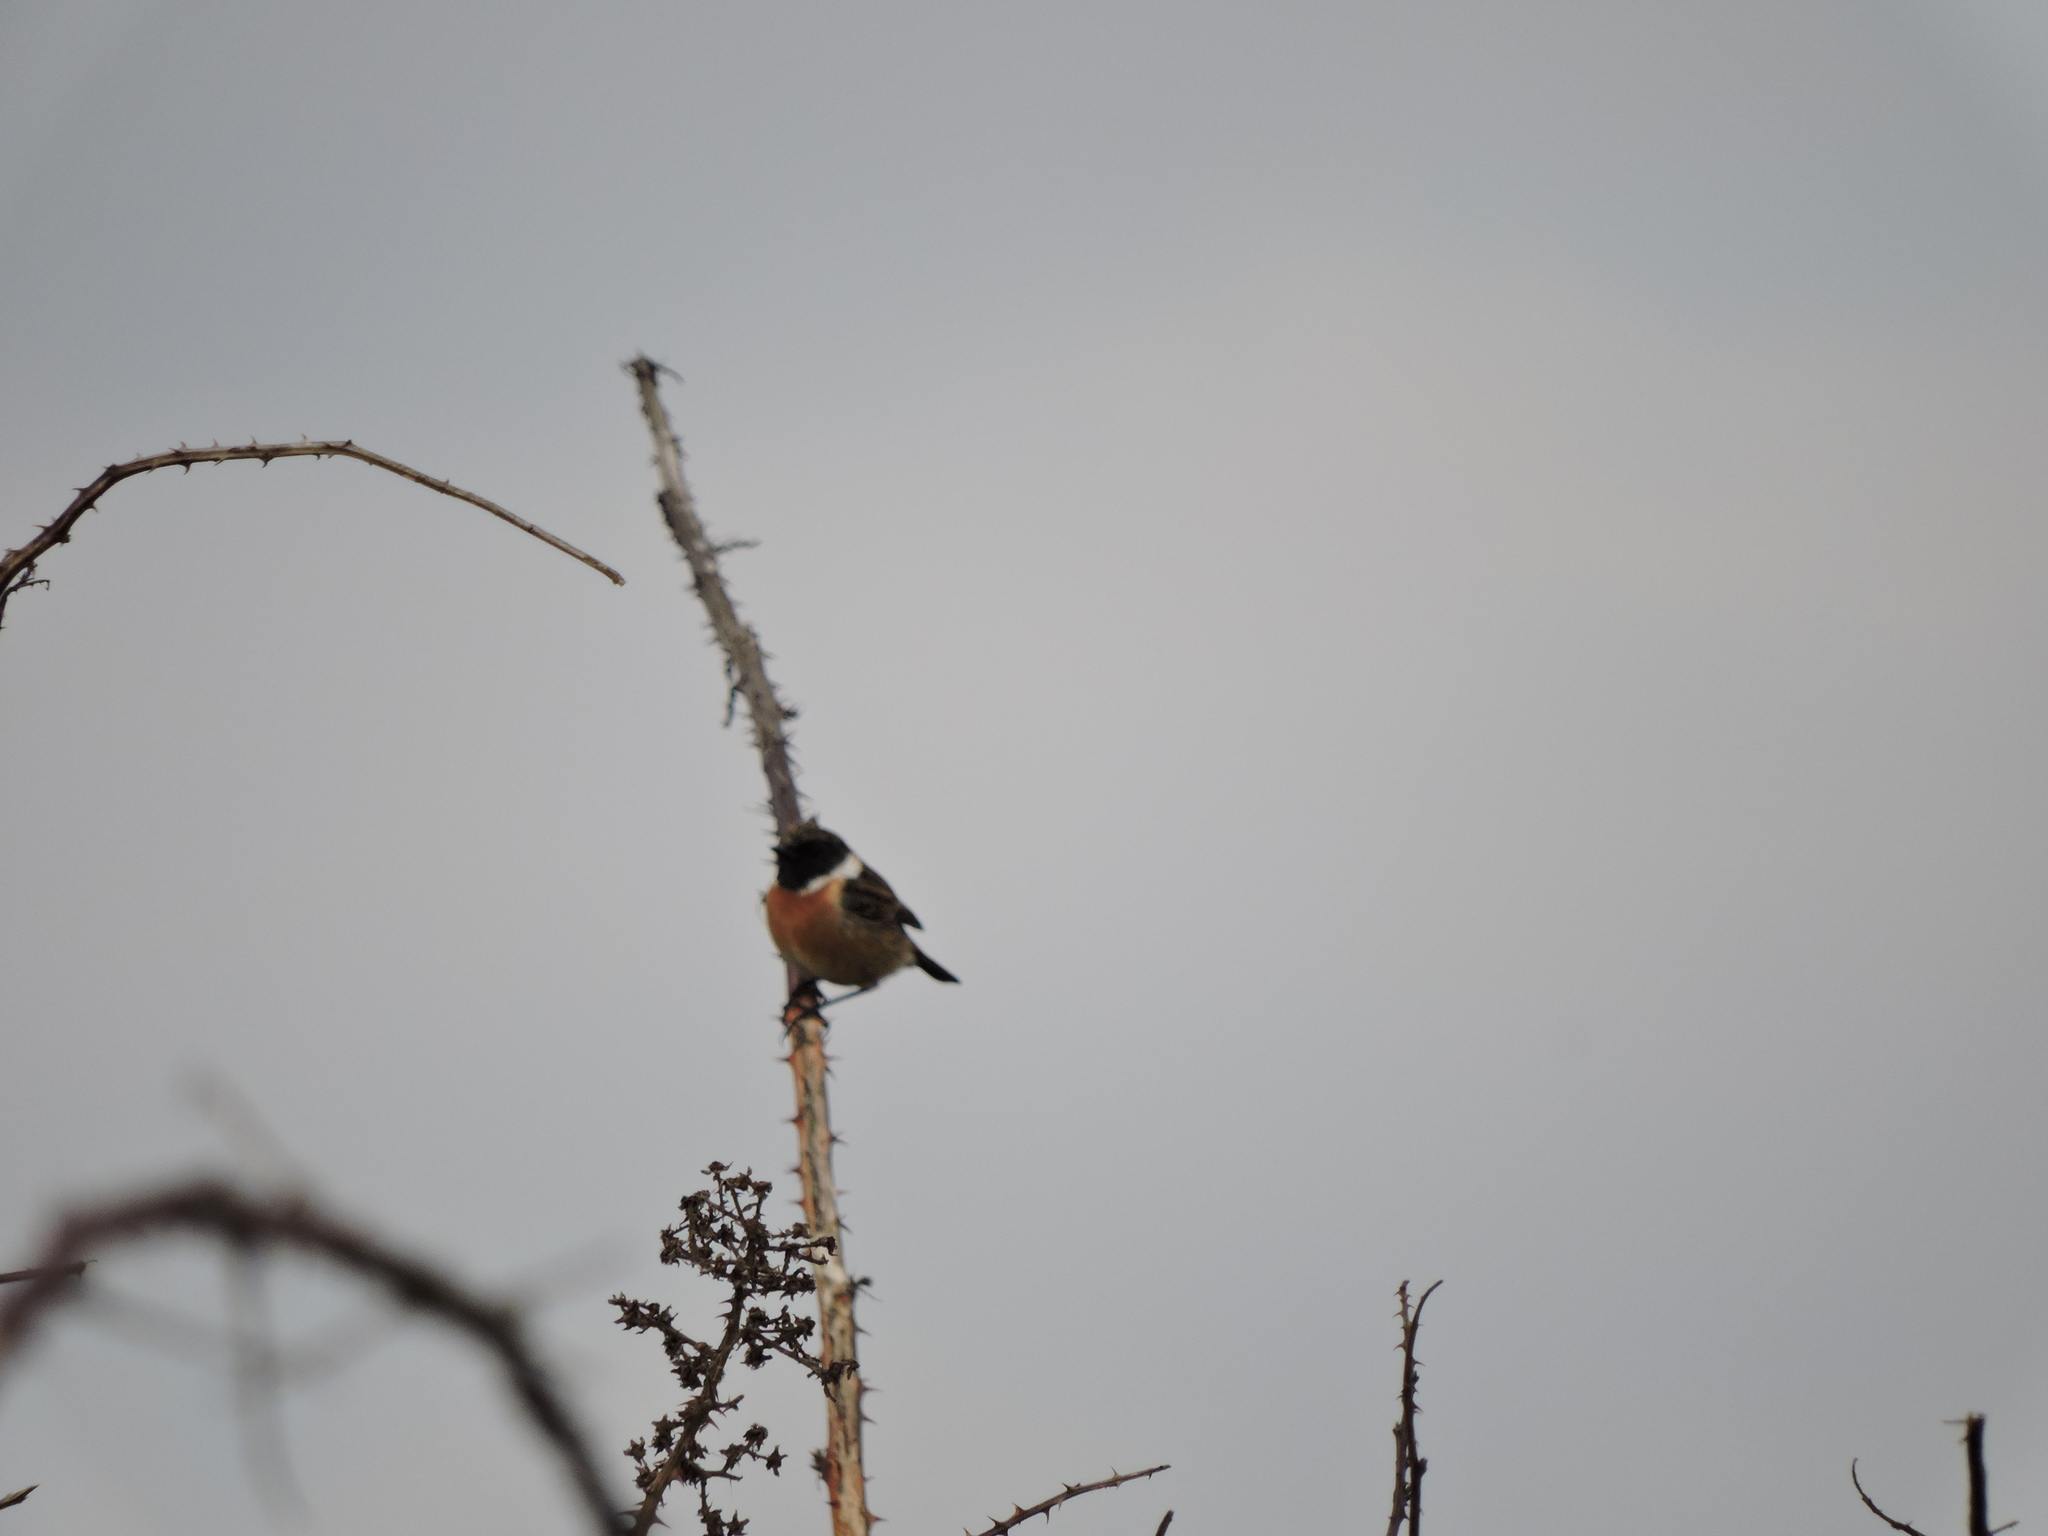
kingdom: Animalia
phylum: Chordata
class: Aves
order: Passeriformes
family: Muscicapidae
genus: Saxicola
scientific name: Saxicola rubicola
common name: European stonechat
